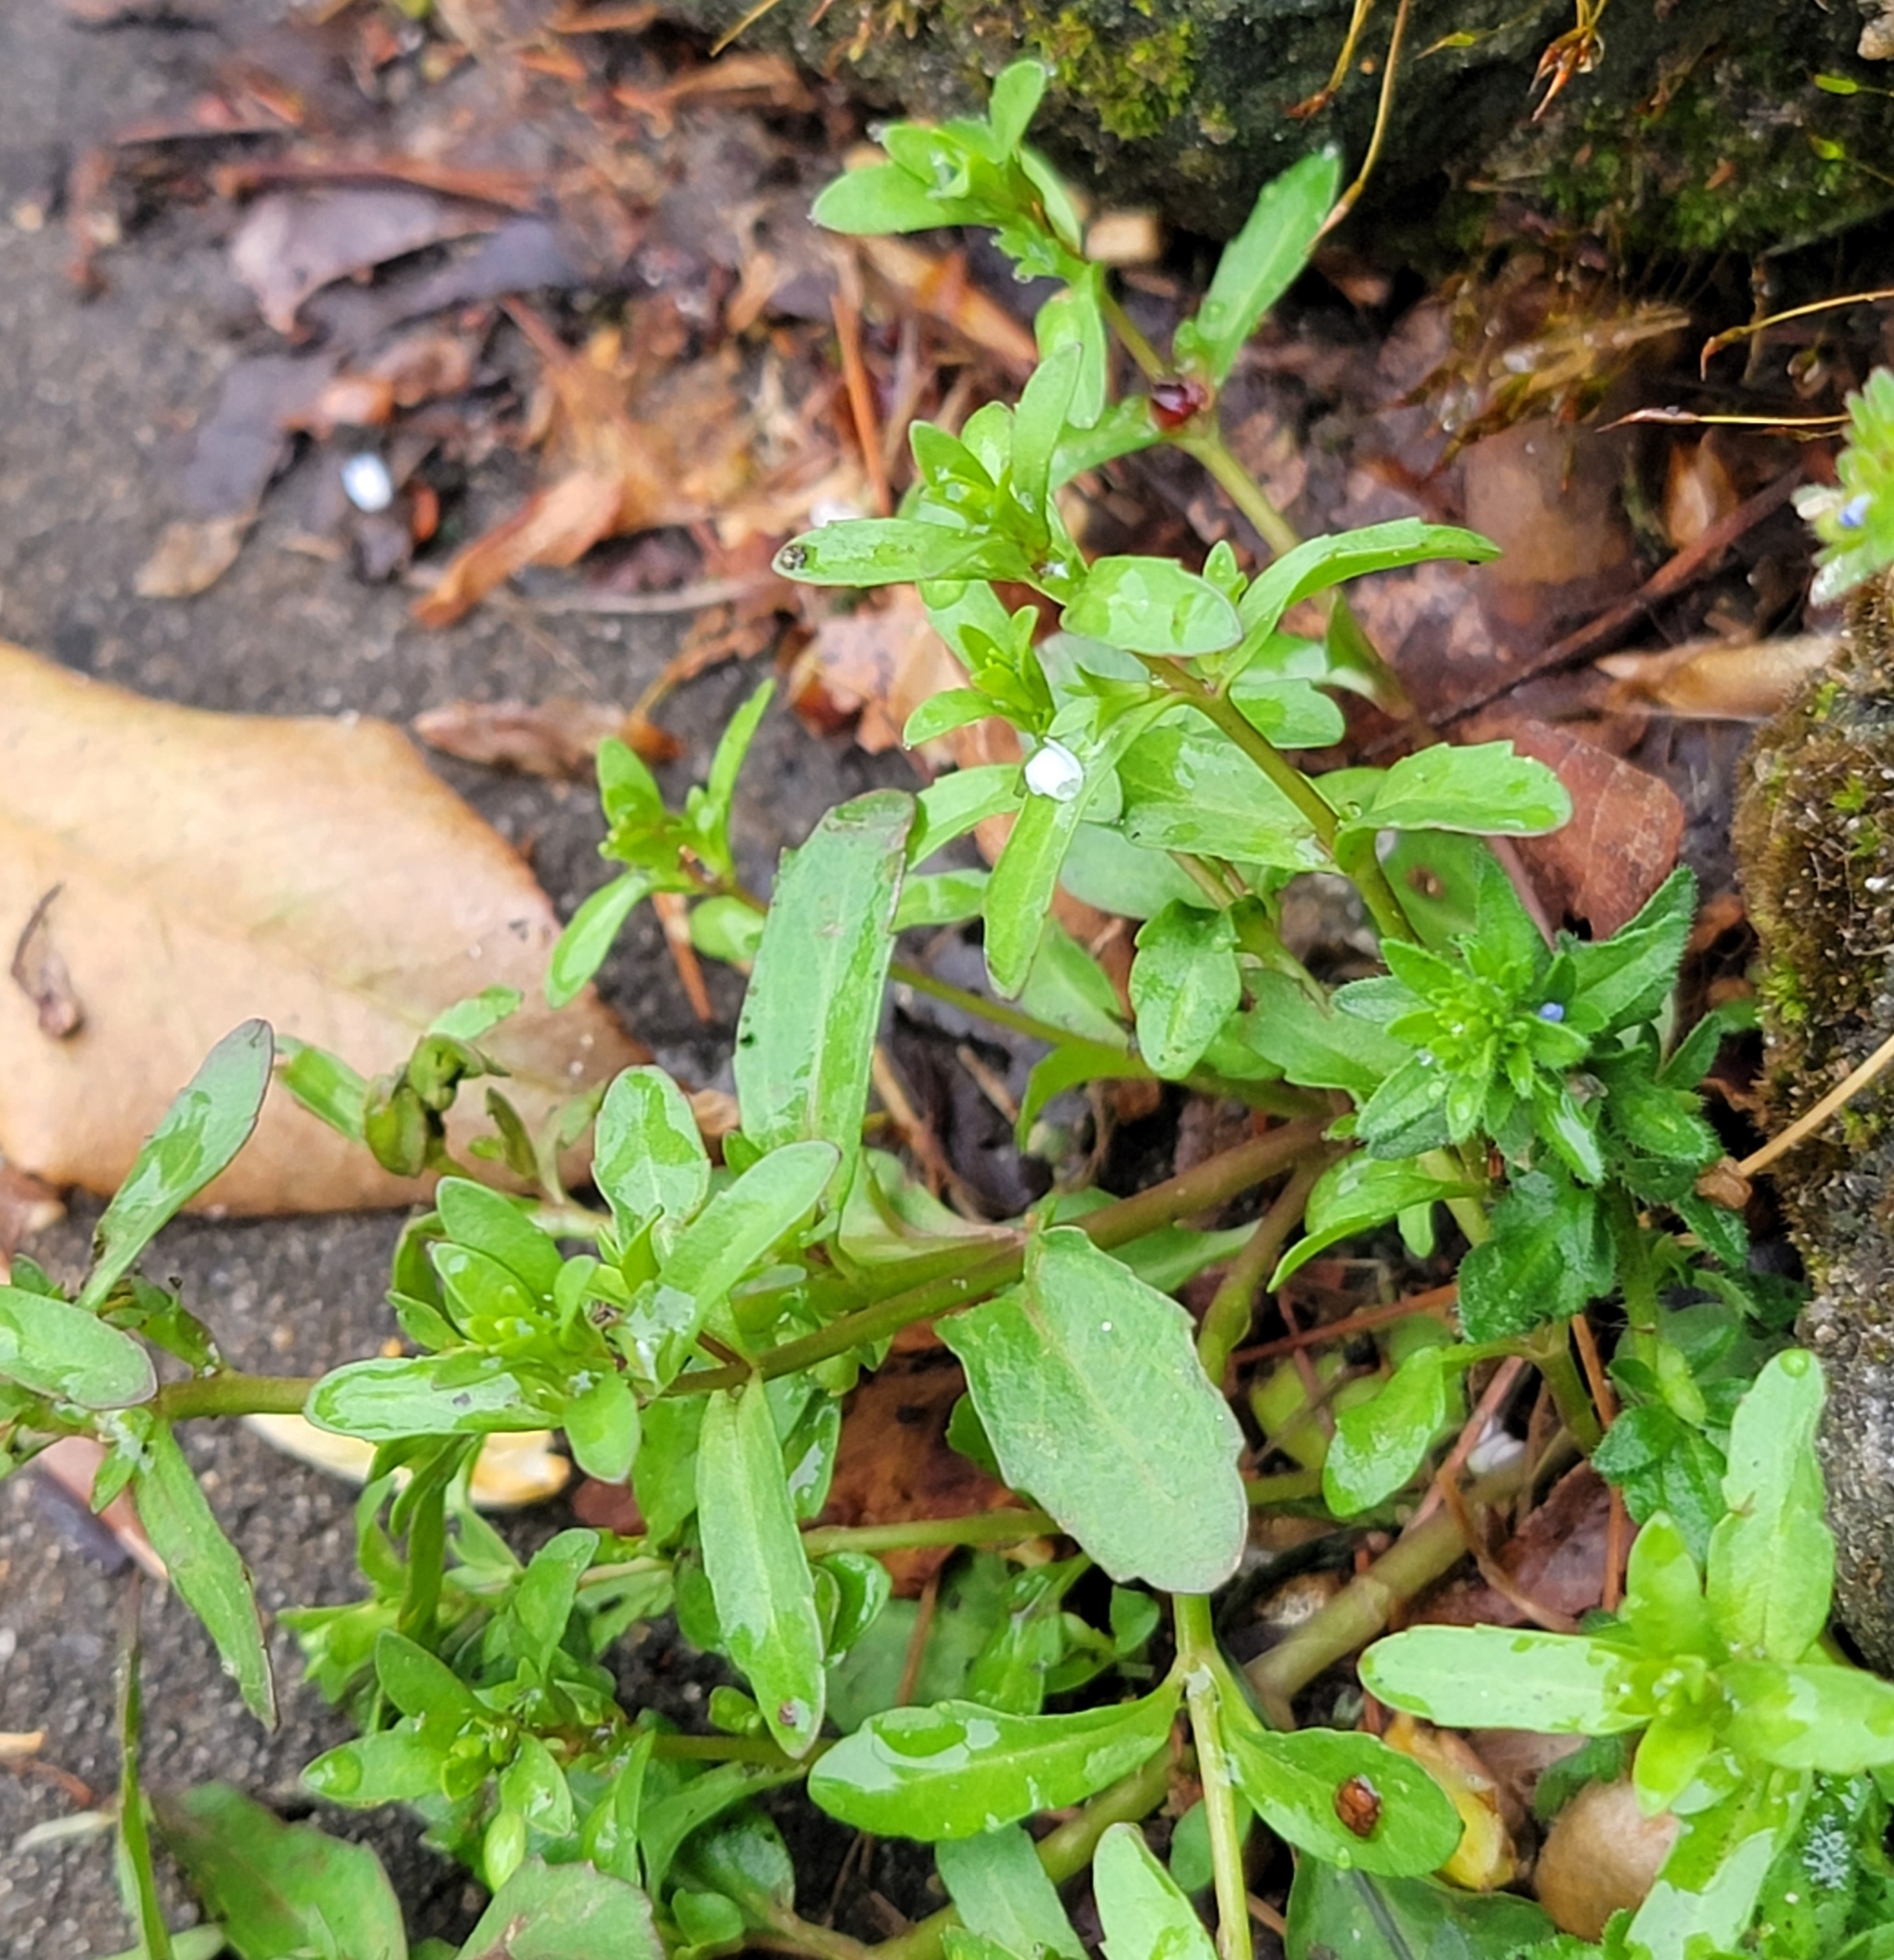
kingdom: Plantae
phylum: Tracheophyta
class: Magnoliopsida
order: Lamiales
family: Plantaginaceae
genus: Veronica
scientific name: Veronica peregrina
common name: Neckweed
